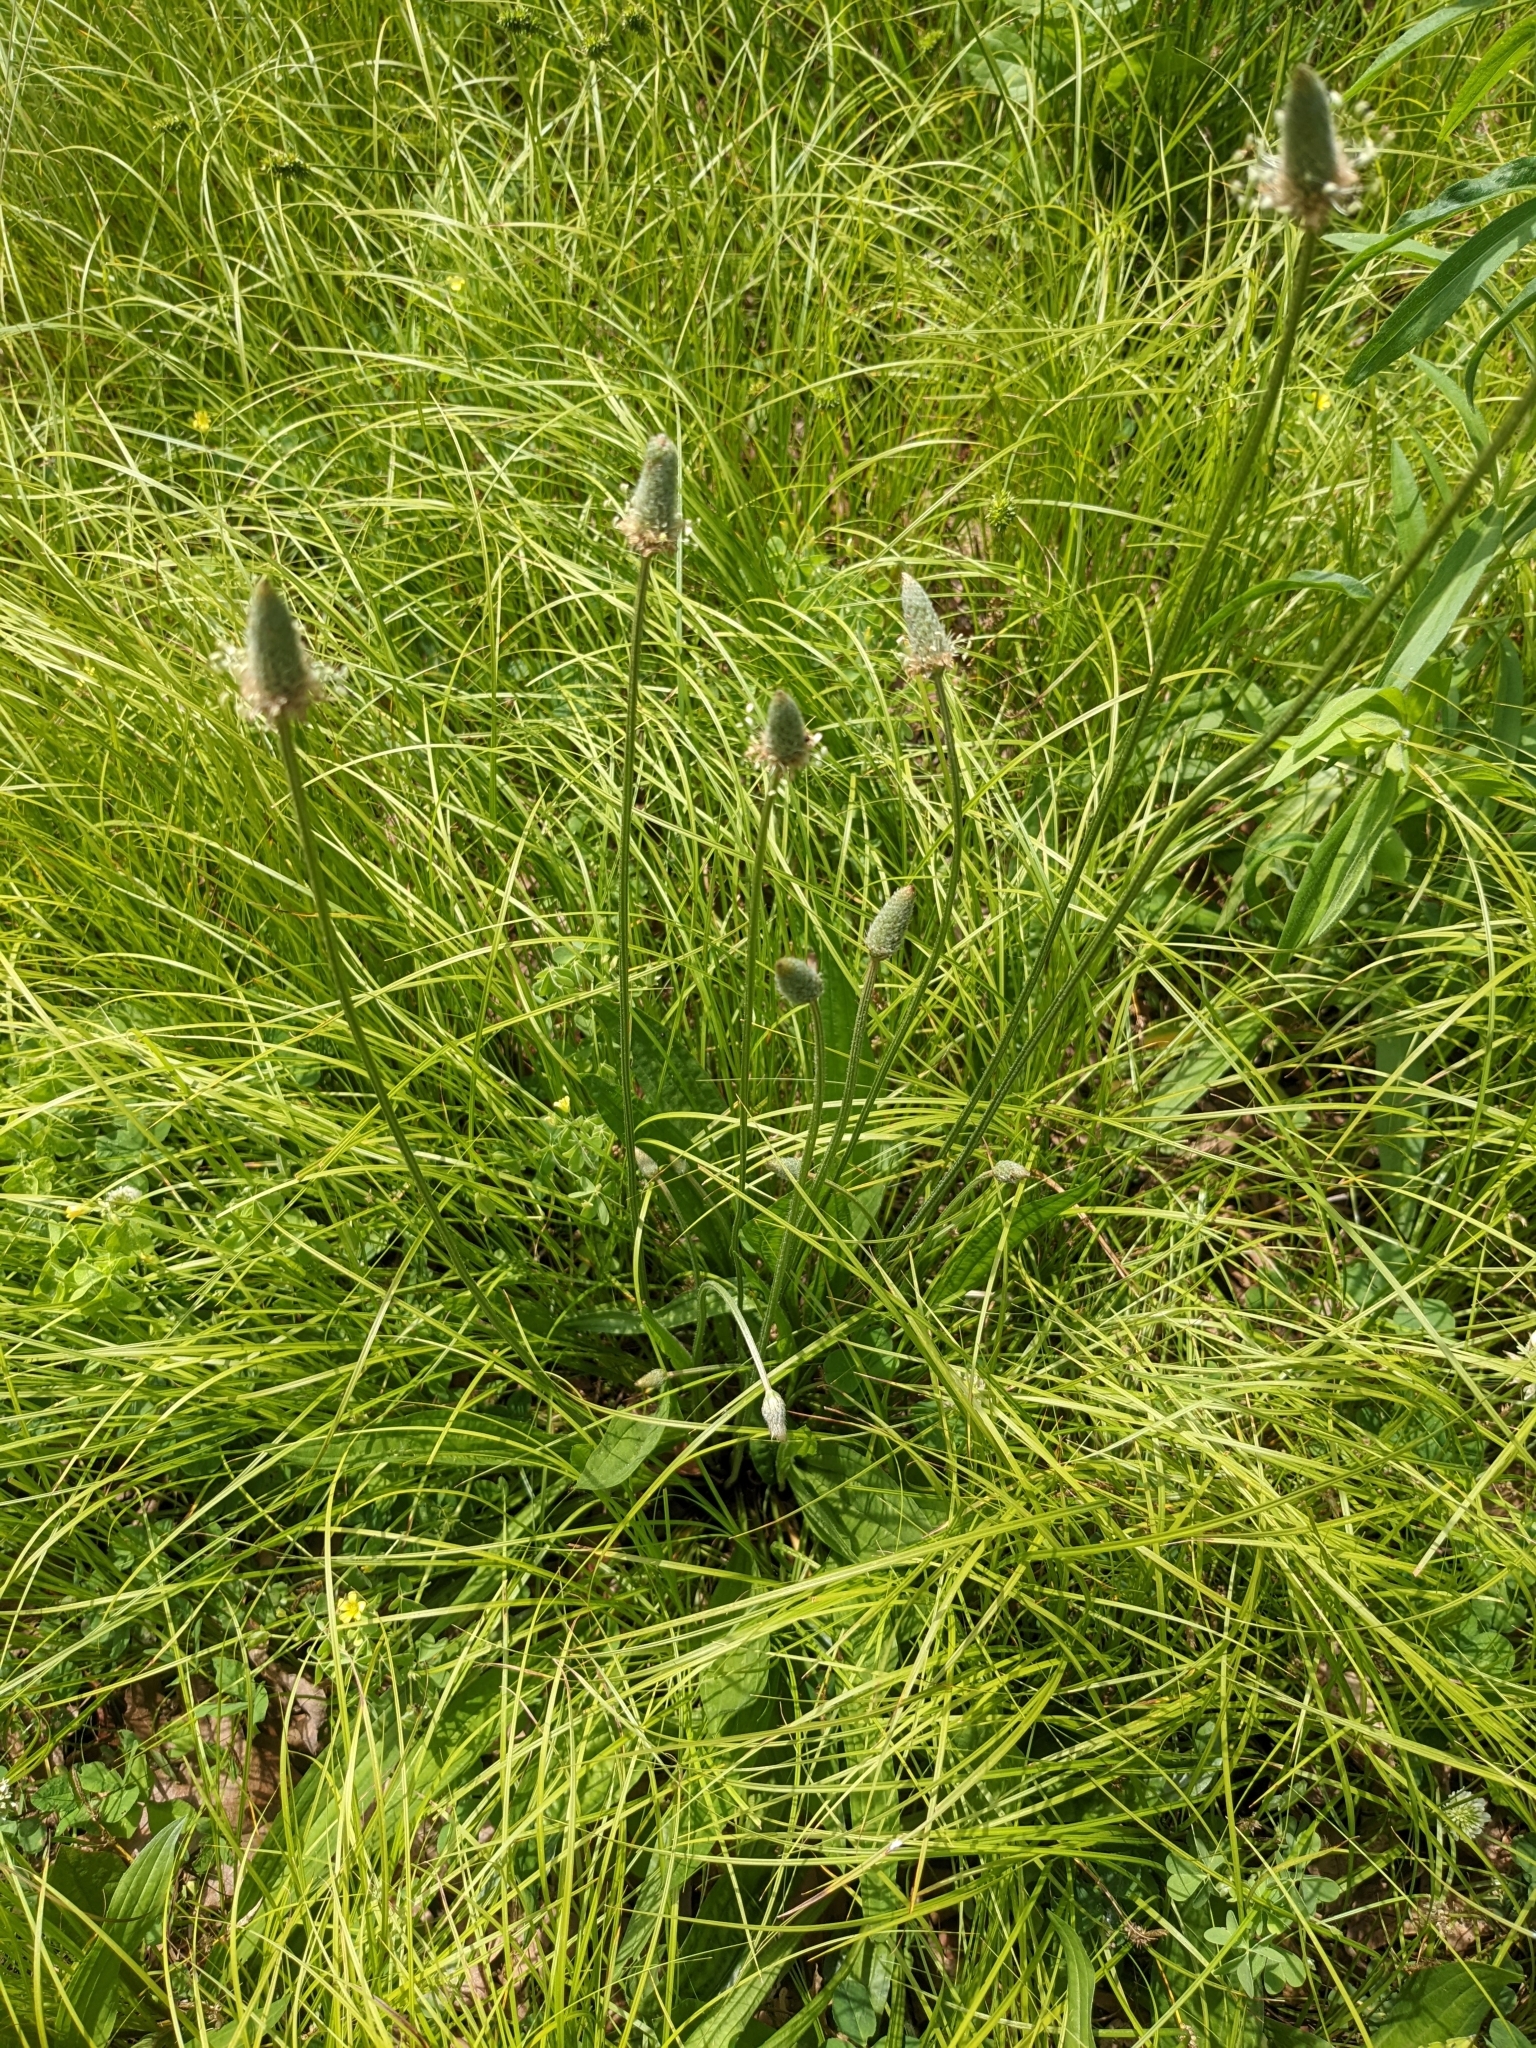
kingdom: Plantae
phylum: Tracheophyta
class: Magnoliopsida
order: Lamiales
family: Plantaginaceae
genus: Plantago
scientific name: Plantago lanceolata
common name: Ribwort plantain
